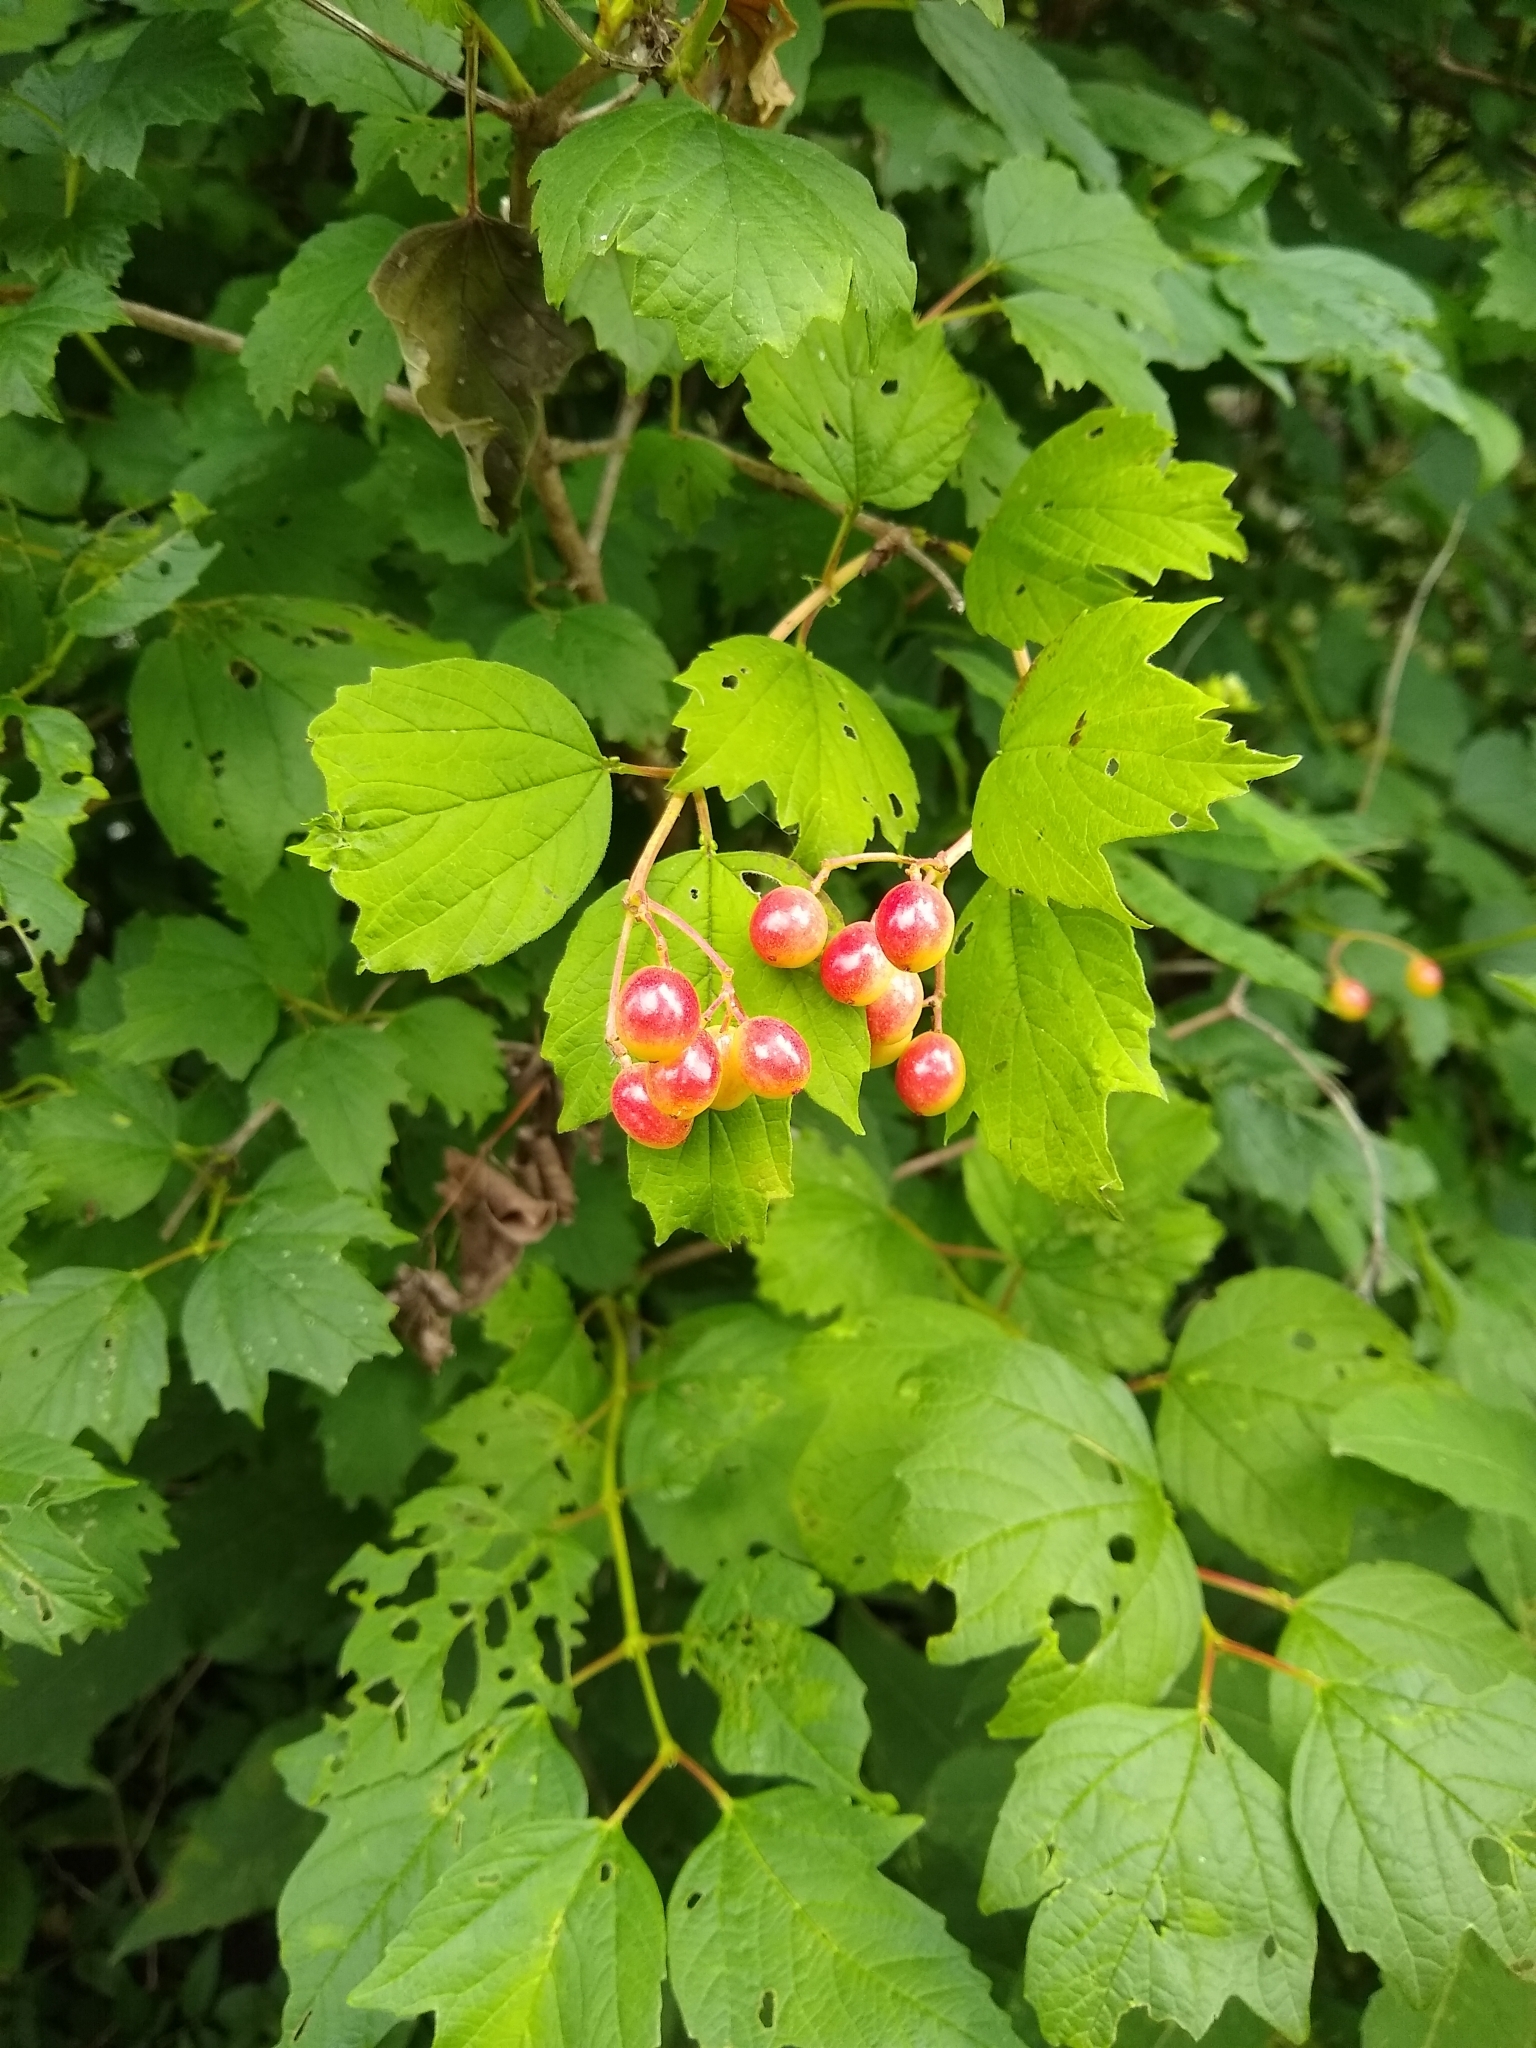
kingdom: Plantae
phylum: Tracheophyta
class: Magnoliopsida
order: Dipsacales
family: Viburnaceae
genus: Viburnum
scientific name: Viburnum opulus
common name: Guelder-rose
